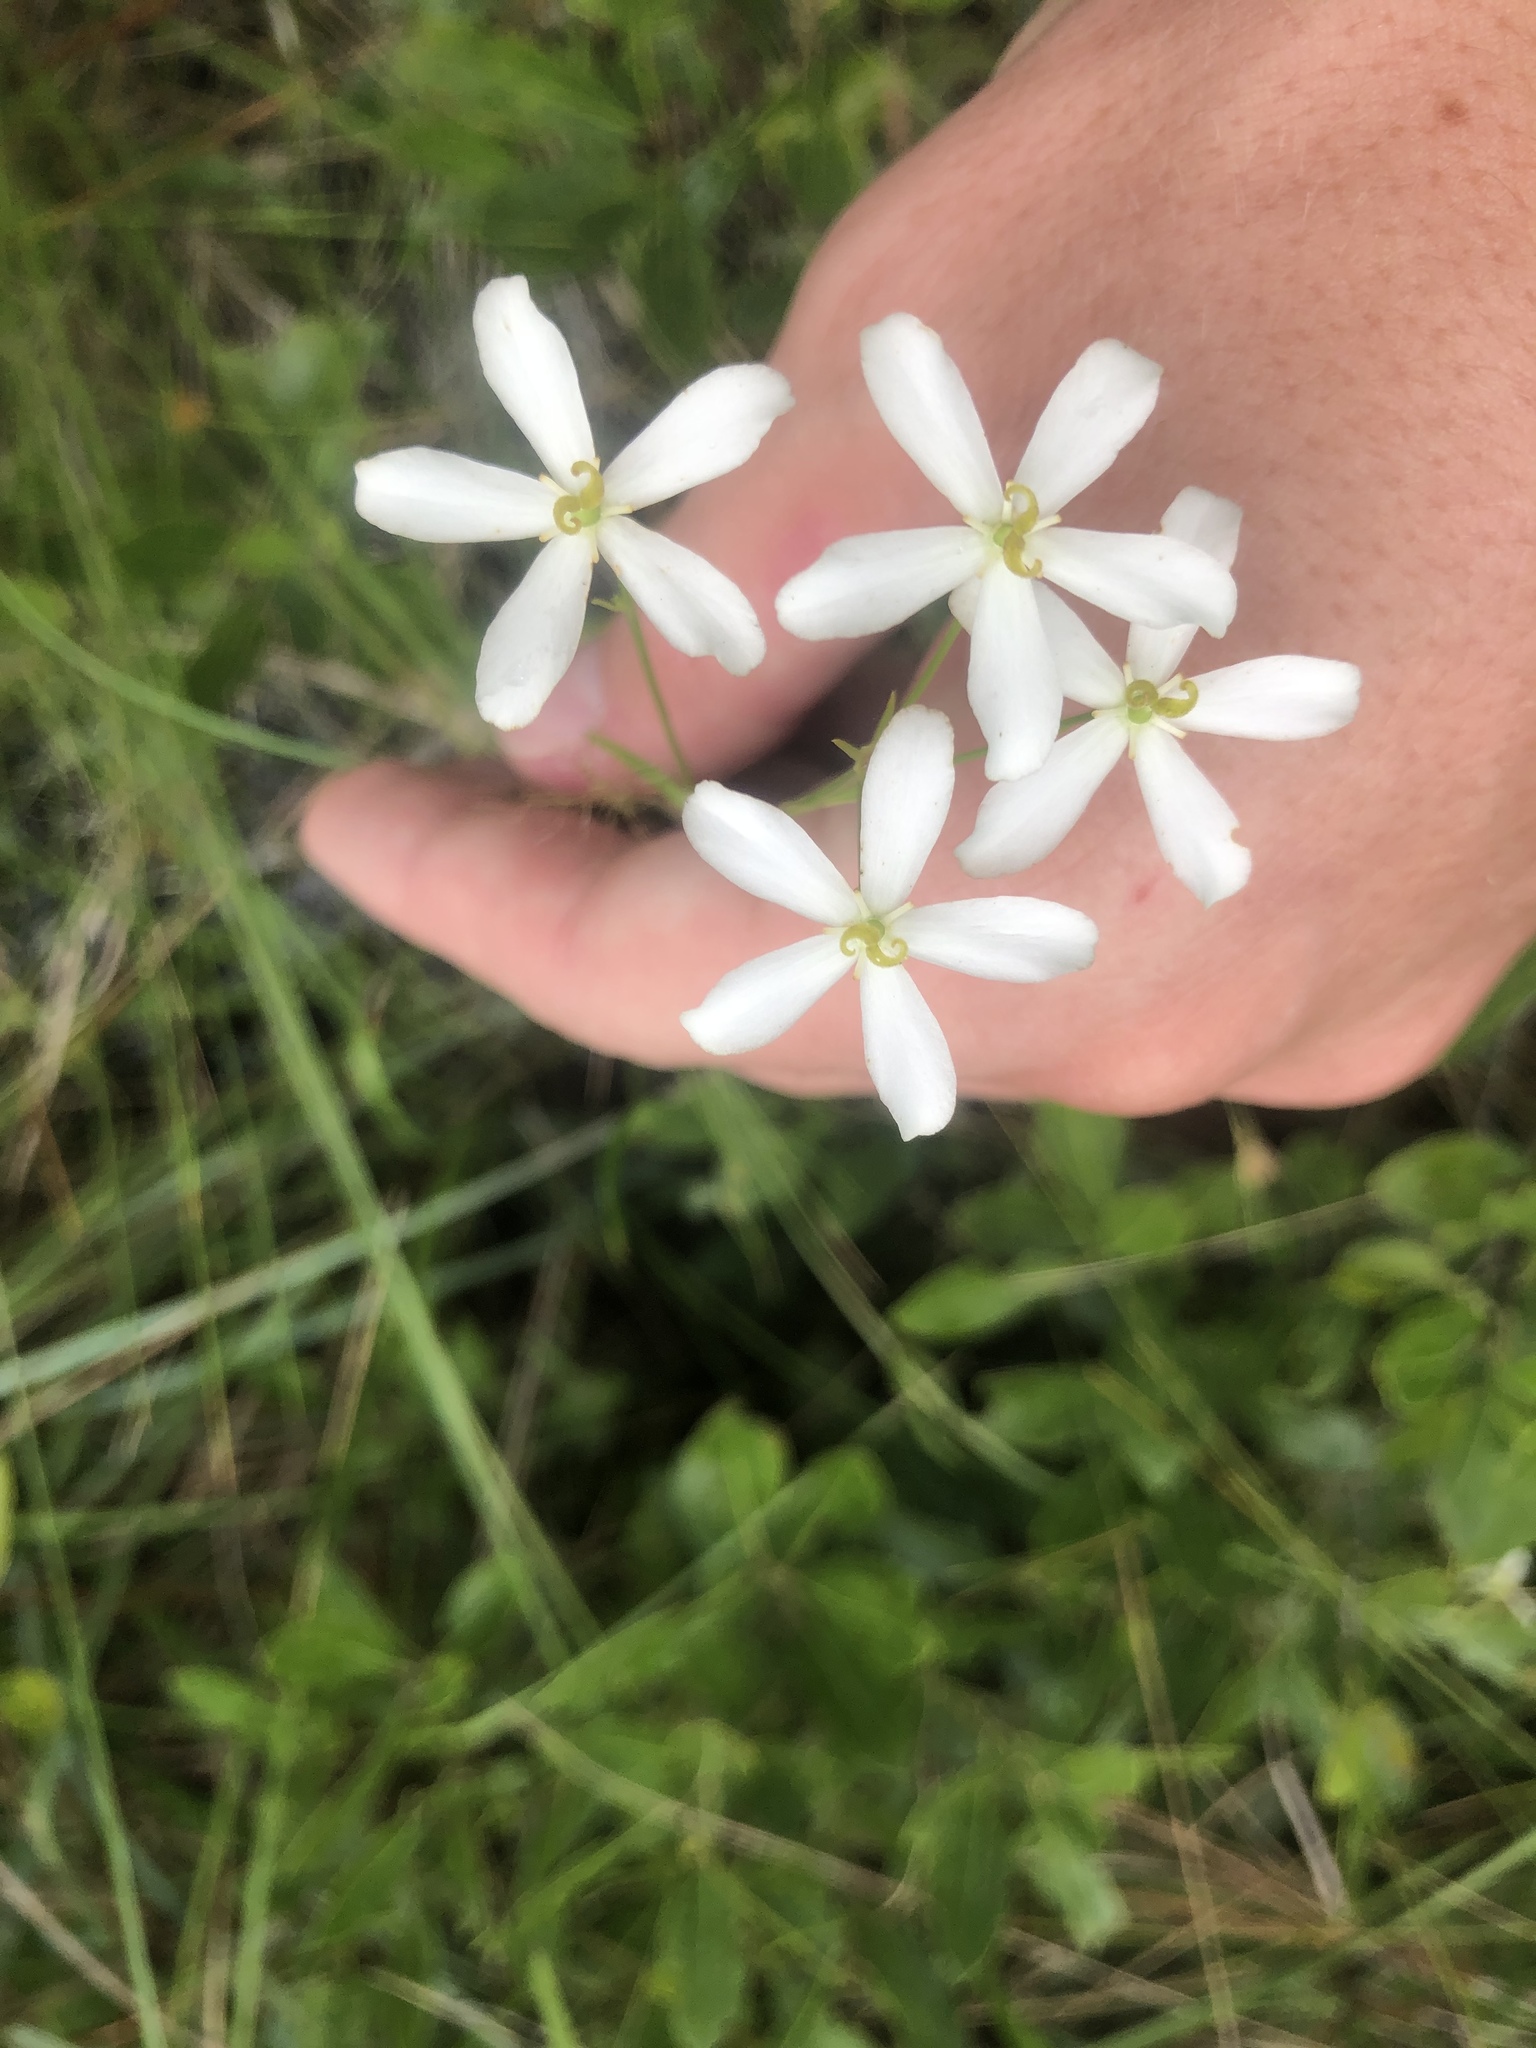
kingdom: Plantae
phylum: Tracheophyta
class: Magnoliopsida
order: Gentianales
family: Gentianaceae
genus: Sabatia
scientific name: Sabatia difformis
